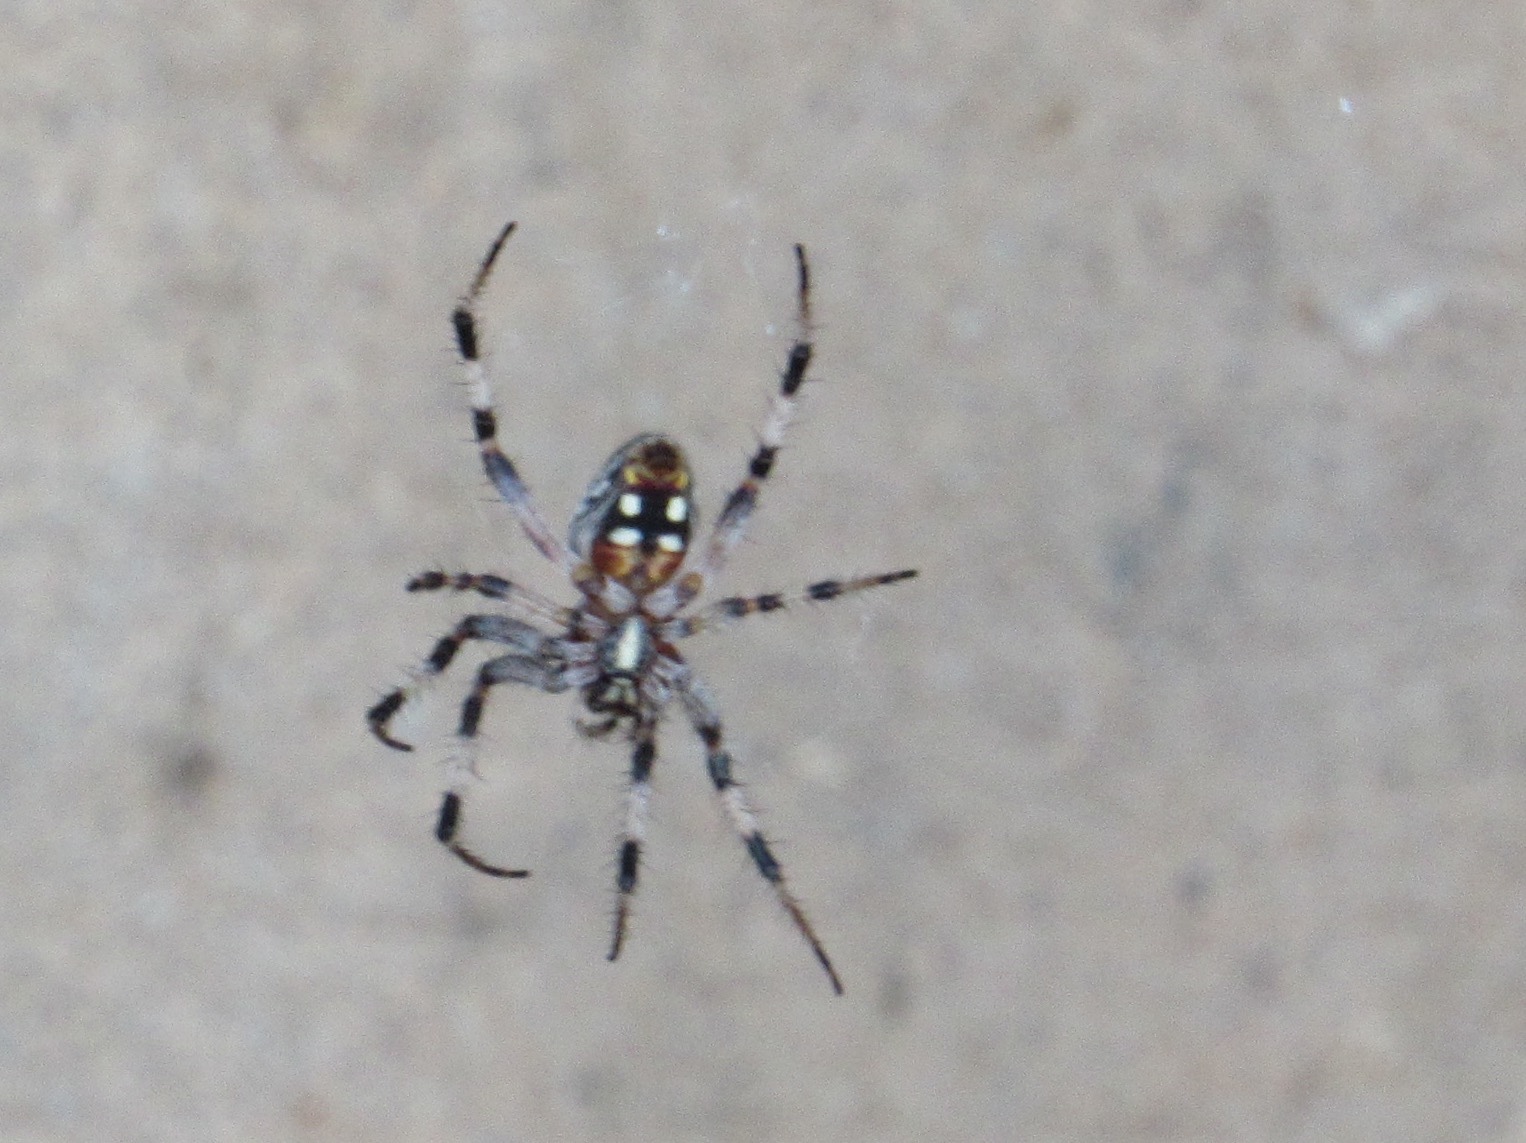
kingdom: Animalia
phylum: Arthropoda
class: Arachnida
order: Araneae
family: Araneidae
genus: Neoscona
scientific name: Neoscona oaxacensis
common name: Orb weavers
